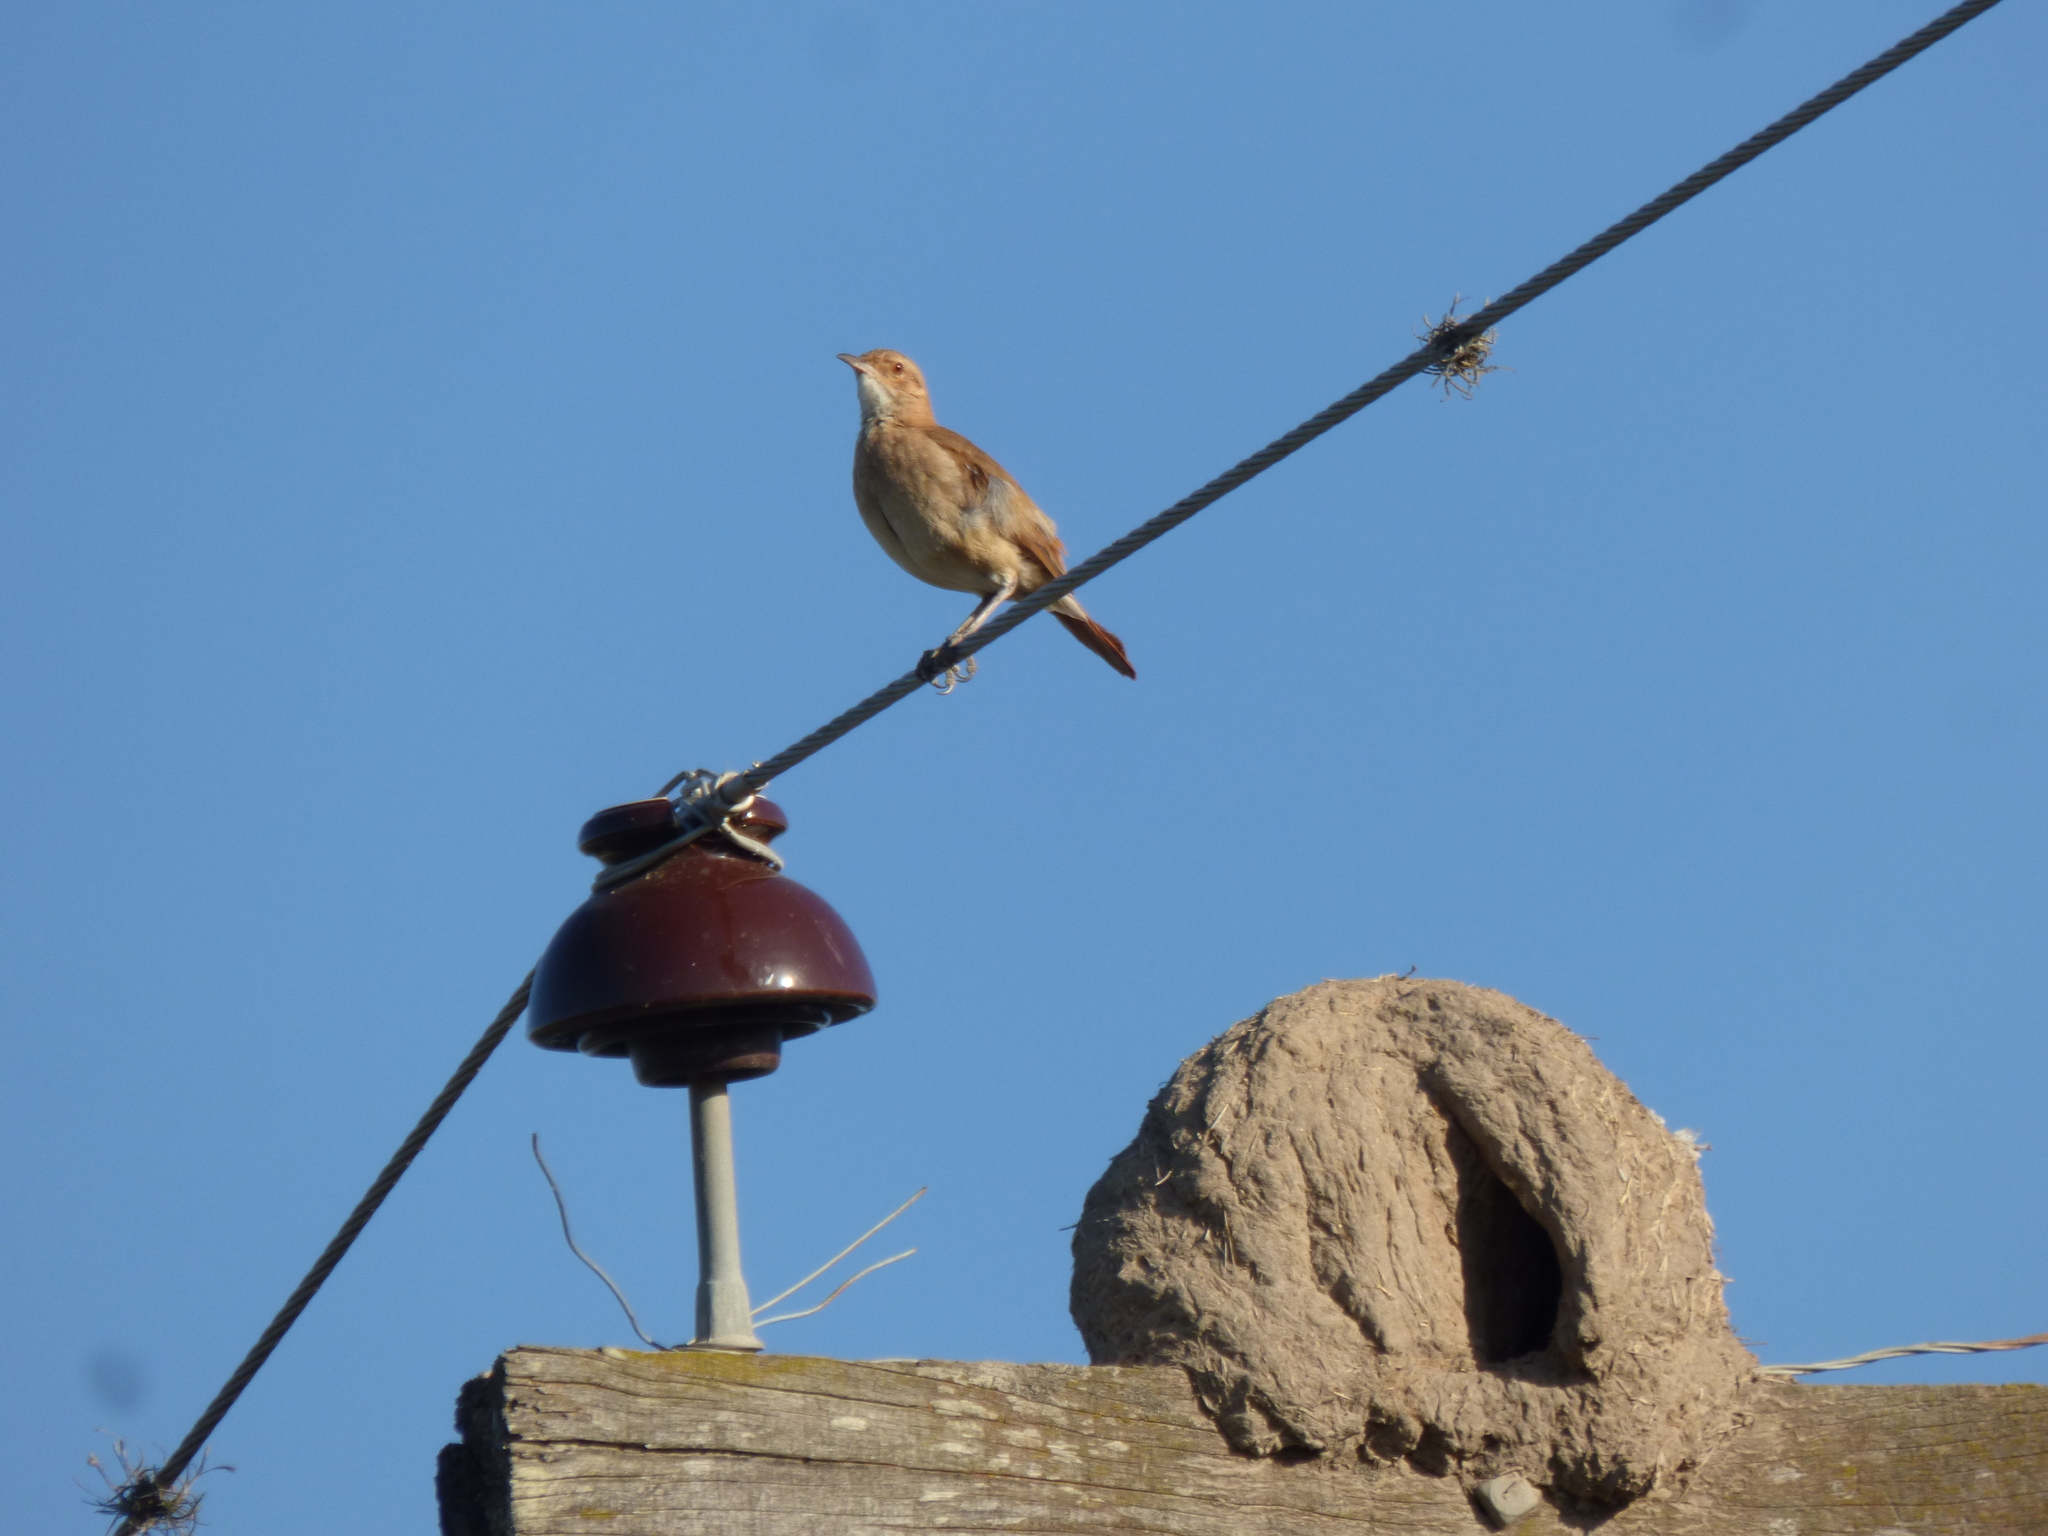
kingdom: Animalia
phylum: Chordata
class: Aves
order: Passeriformes
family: Furnariidae
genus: Furnarius
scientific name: Furnarius rufus
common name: Rufous hornero
